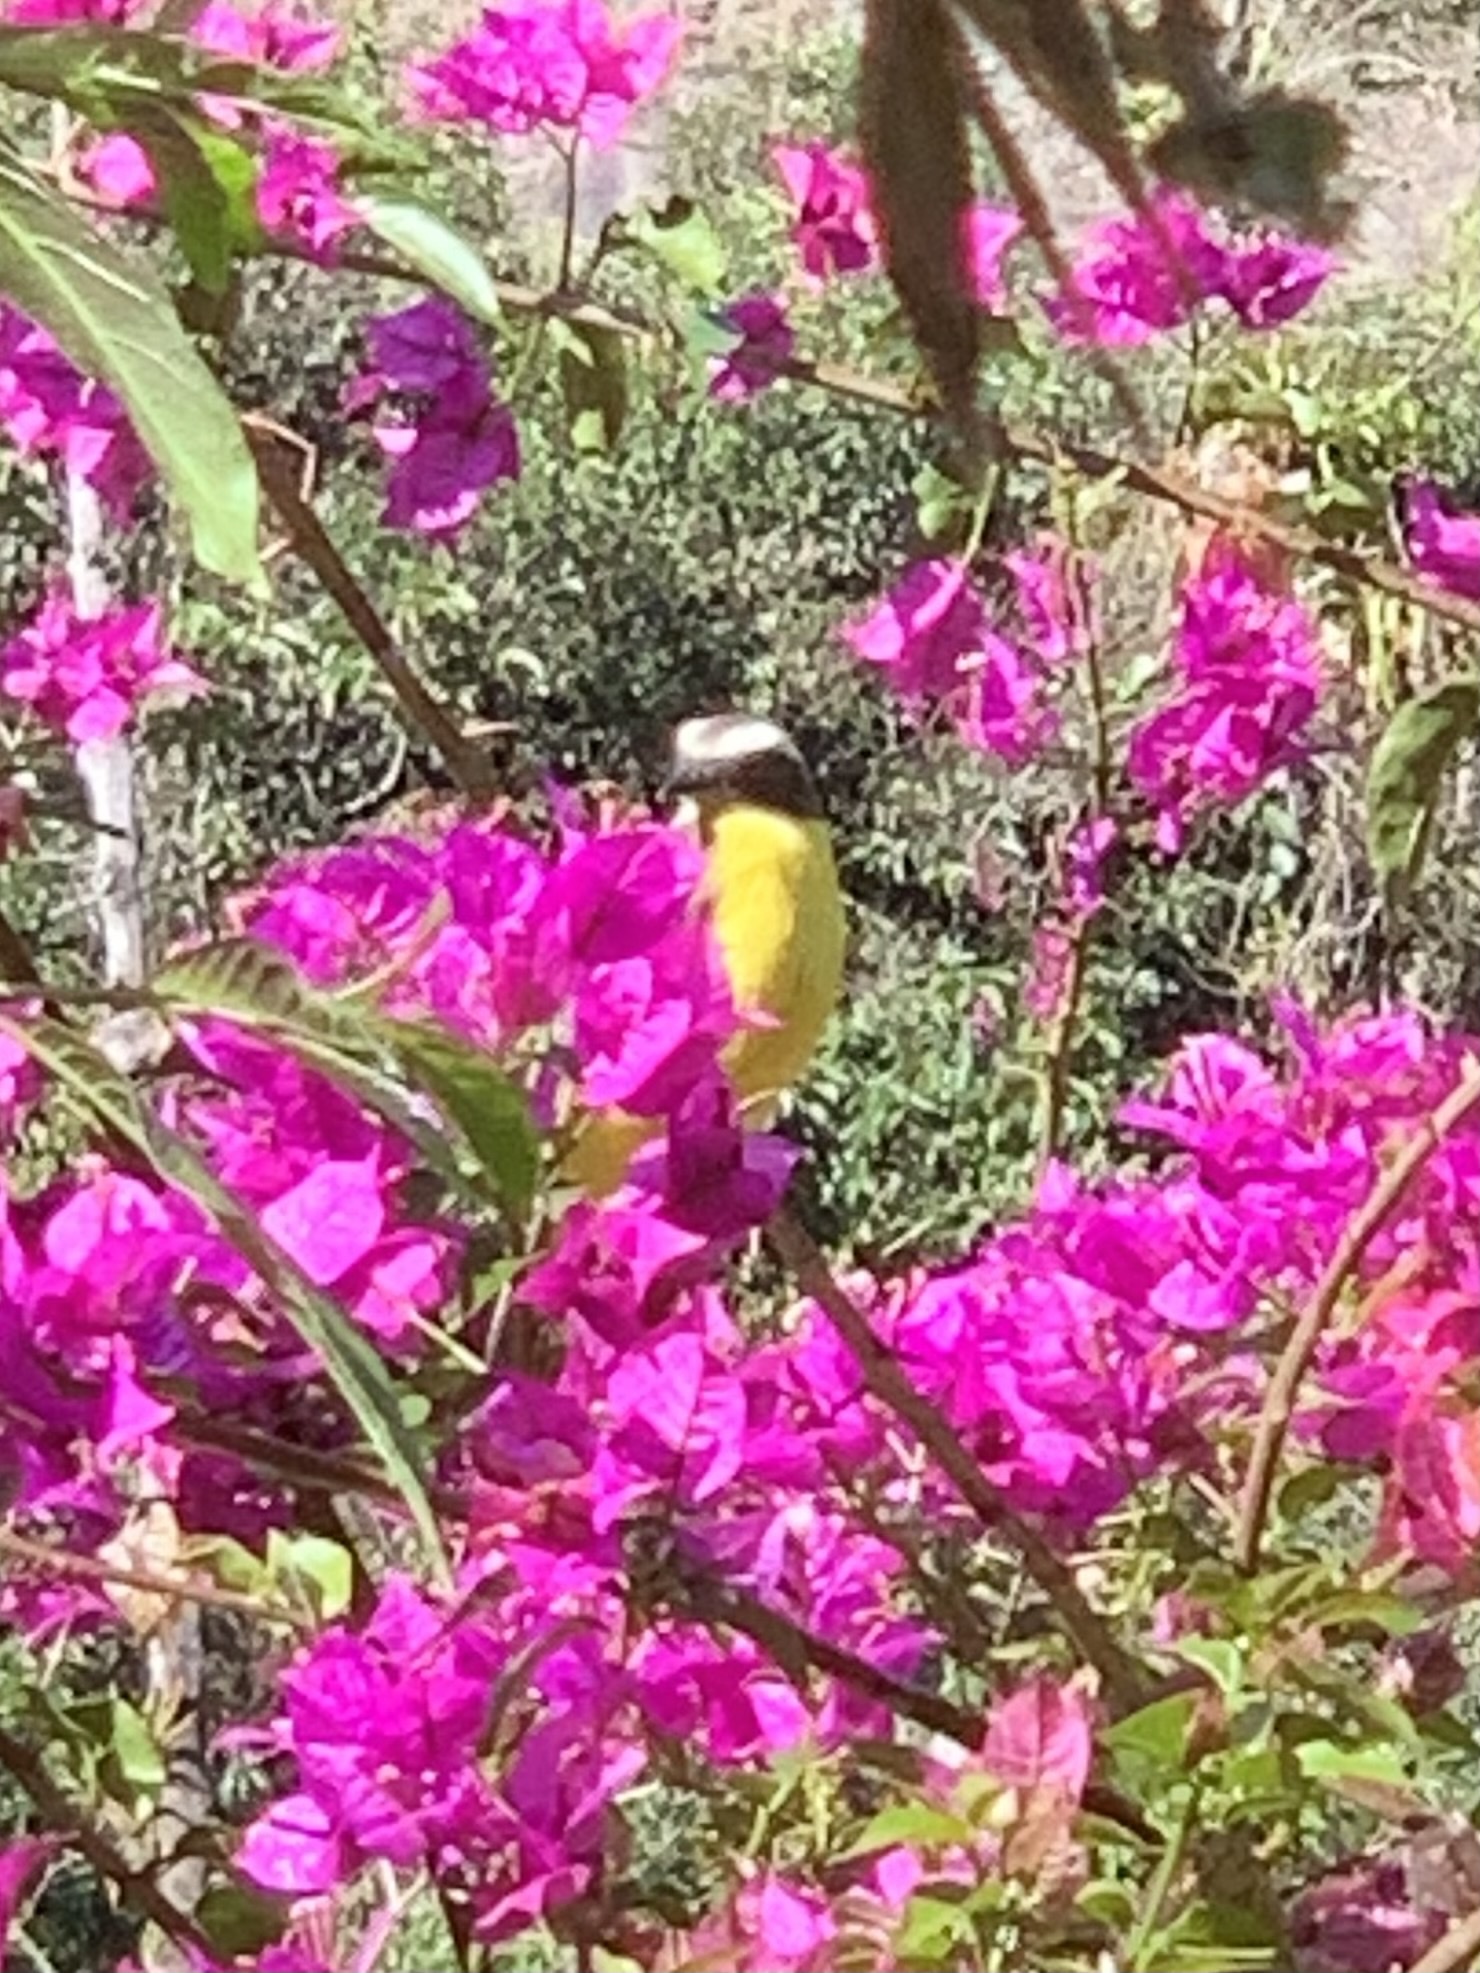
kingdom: Animalia
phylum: Chordata
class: Aves
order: Passeriformes
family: Tyrannidae
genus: Myiozetetes
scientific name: Myiozetetes similis
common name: Social flycatcher
